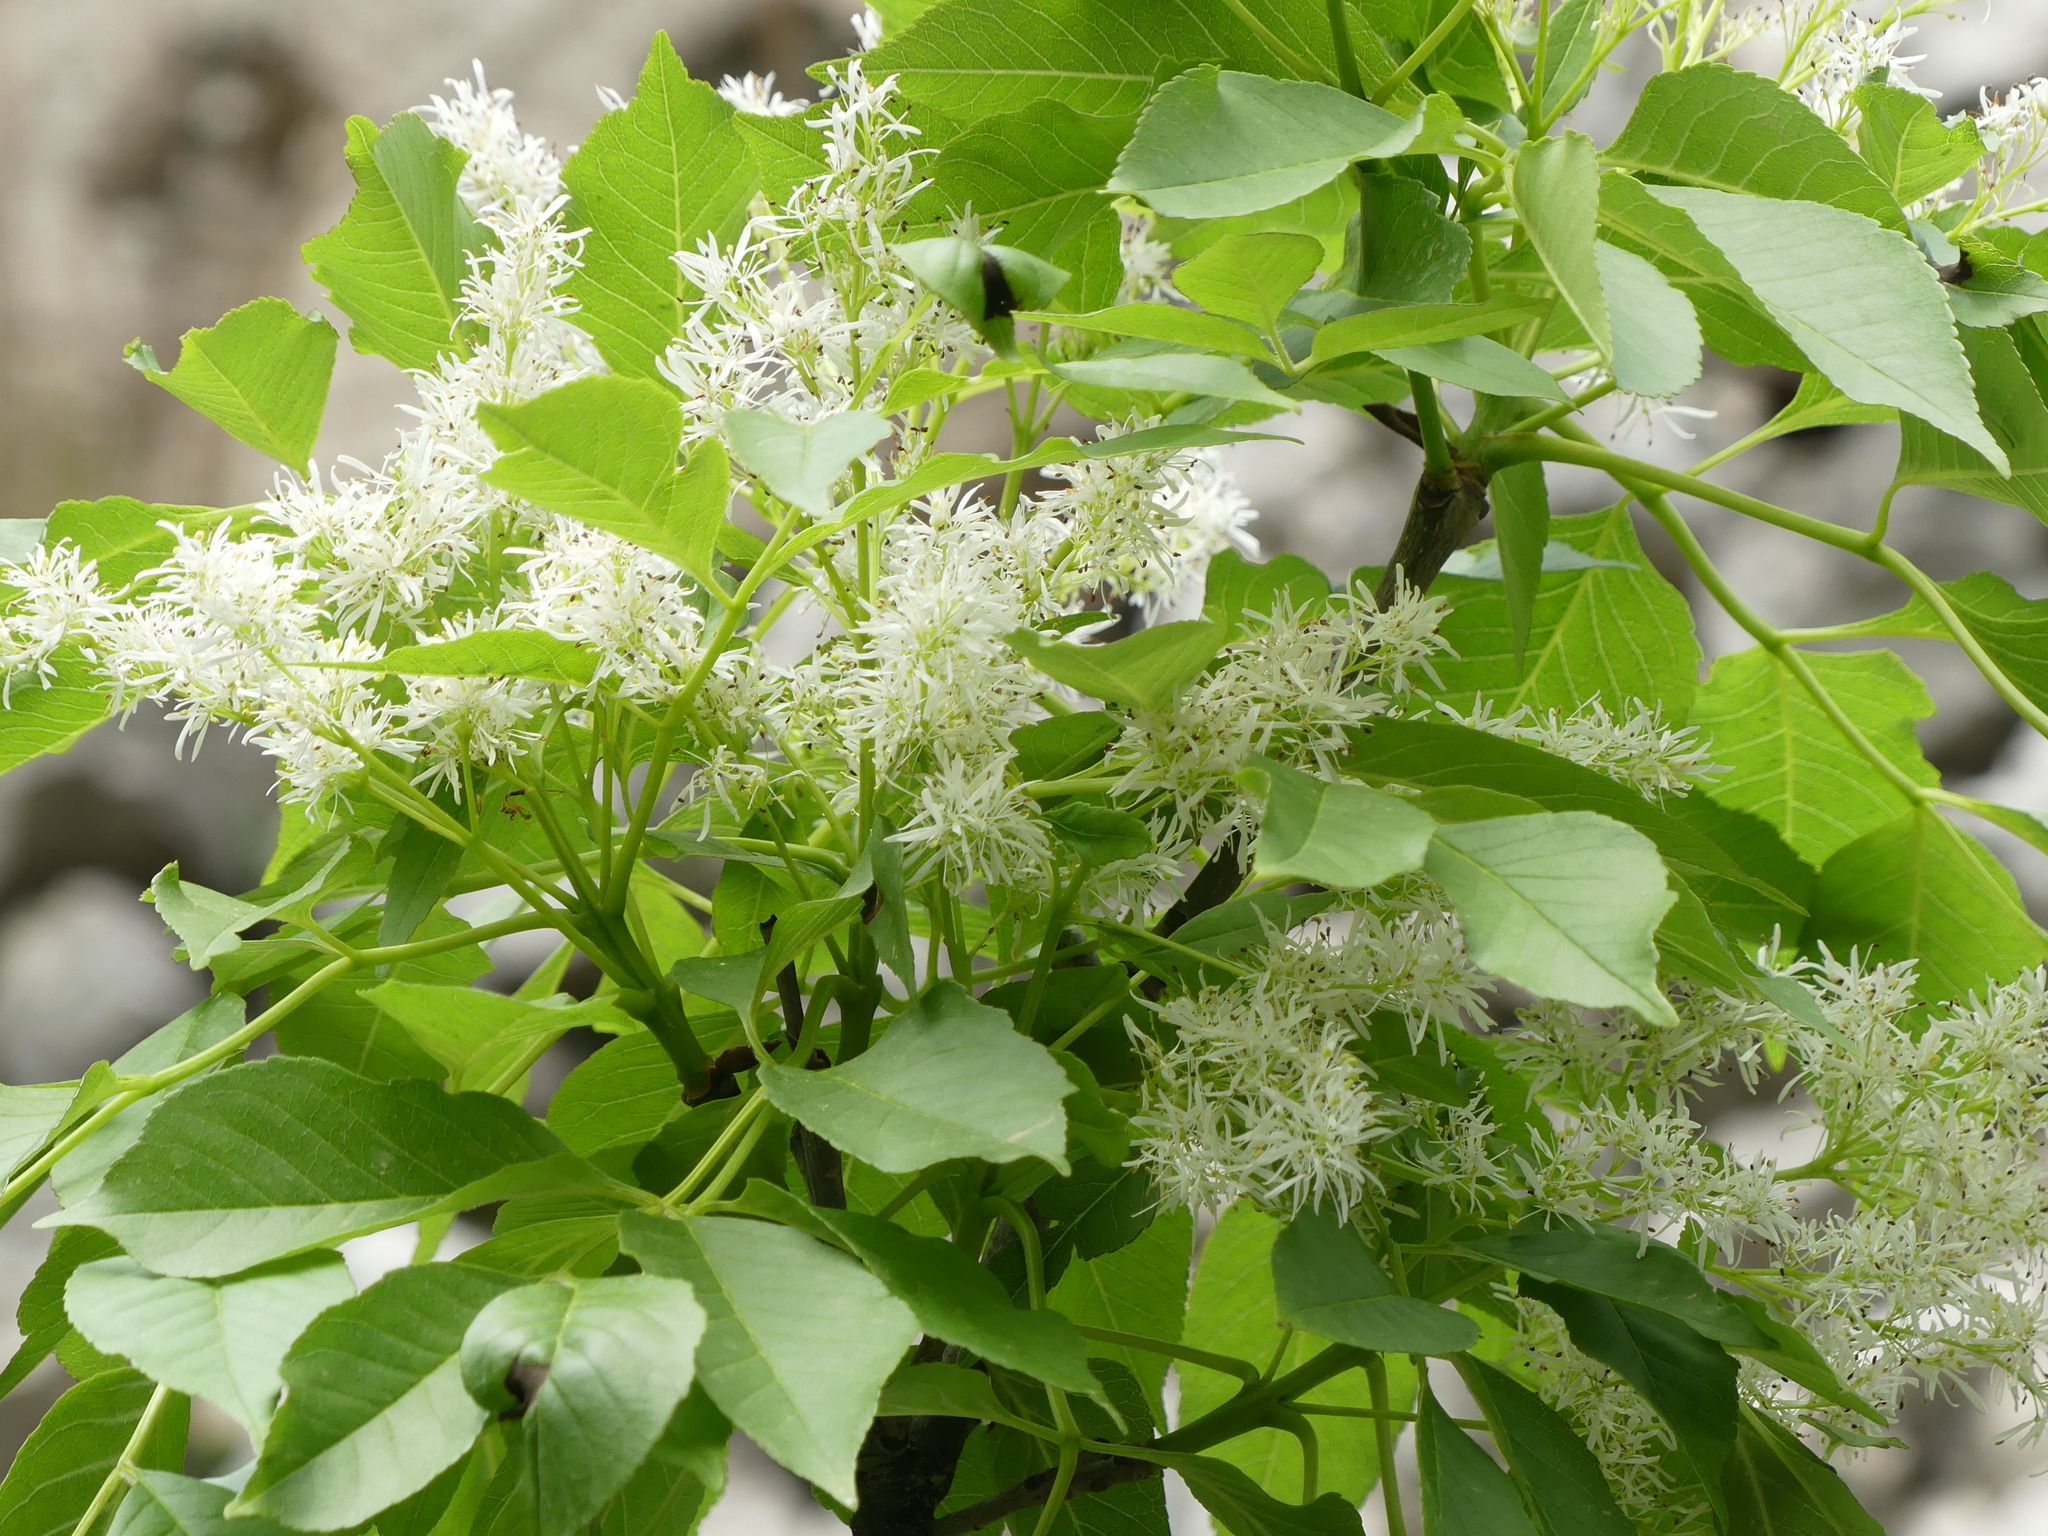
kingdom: Plantae
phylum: Tracheophyta
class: Magnoliopsida
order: Lamiales
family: Oleaceae
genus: Fraxinus
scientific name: Fraxinus ornus
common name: Manna ash
